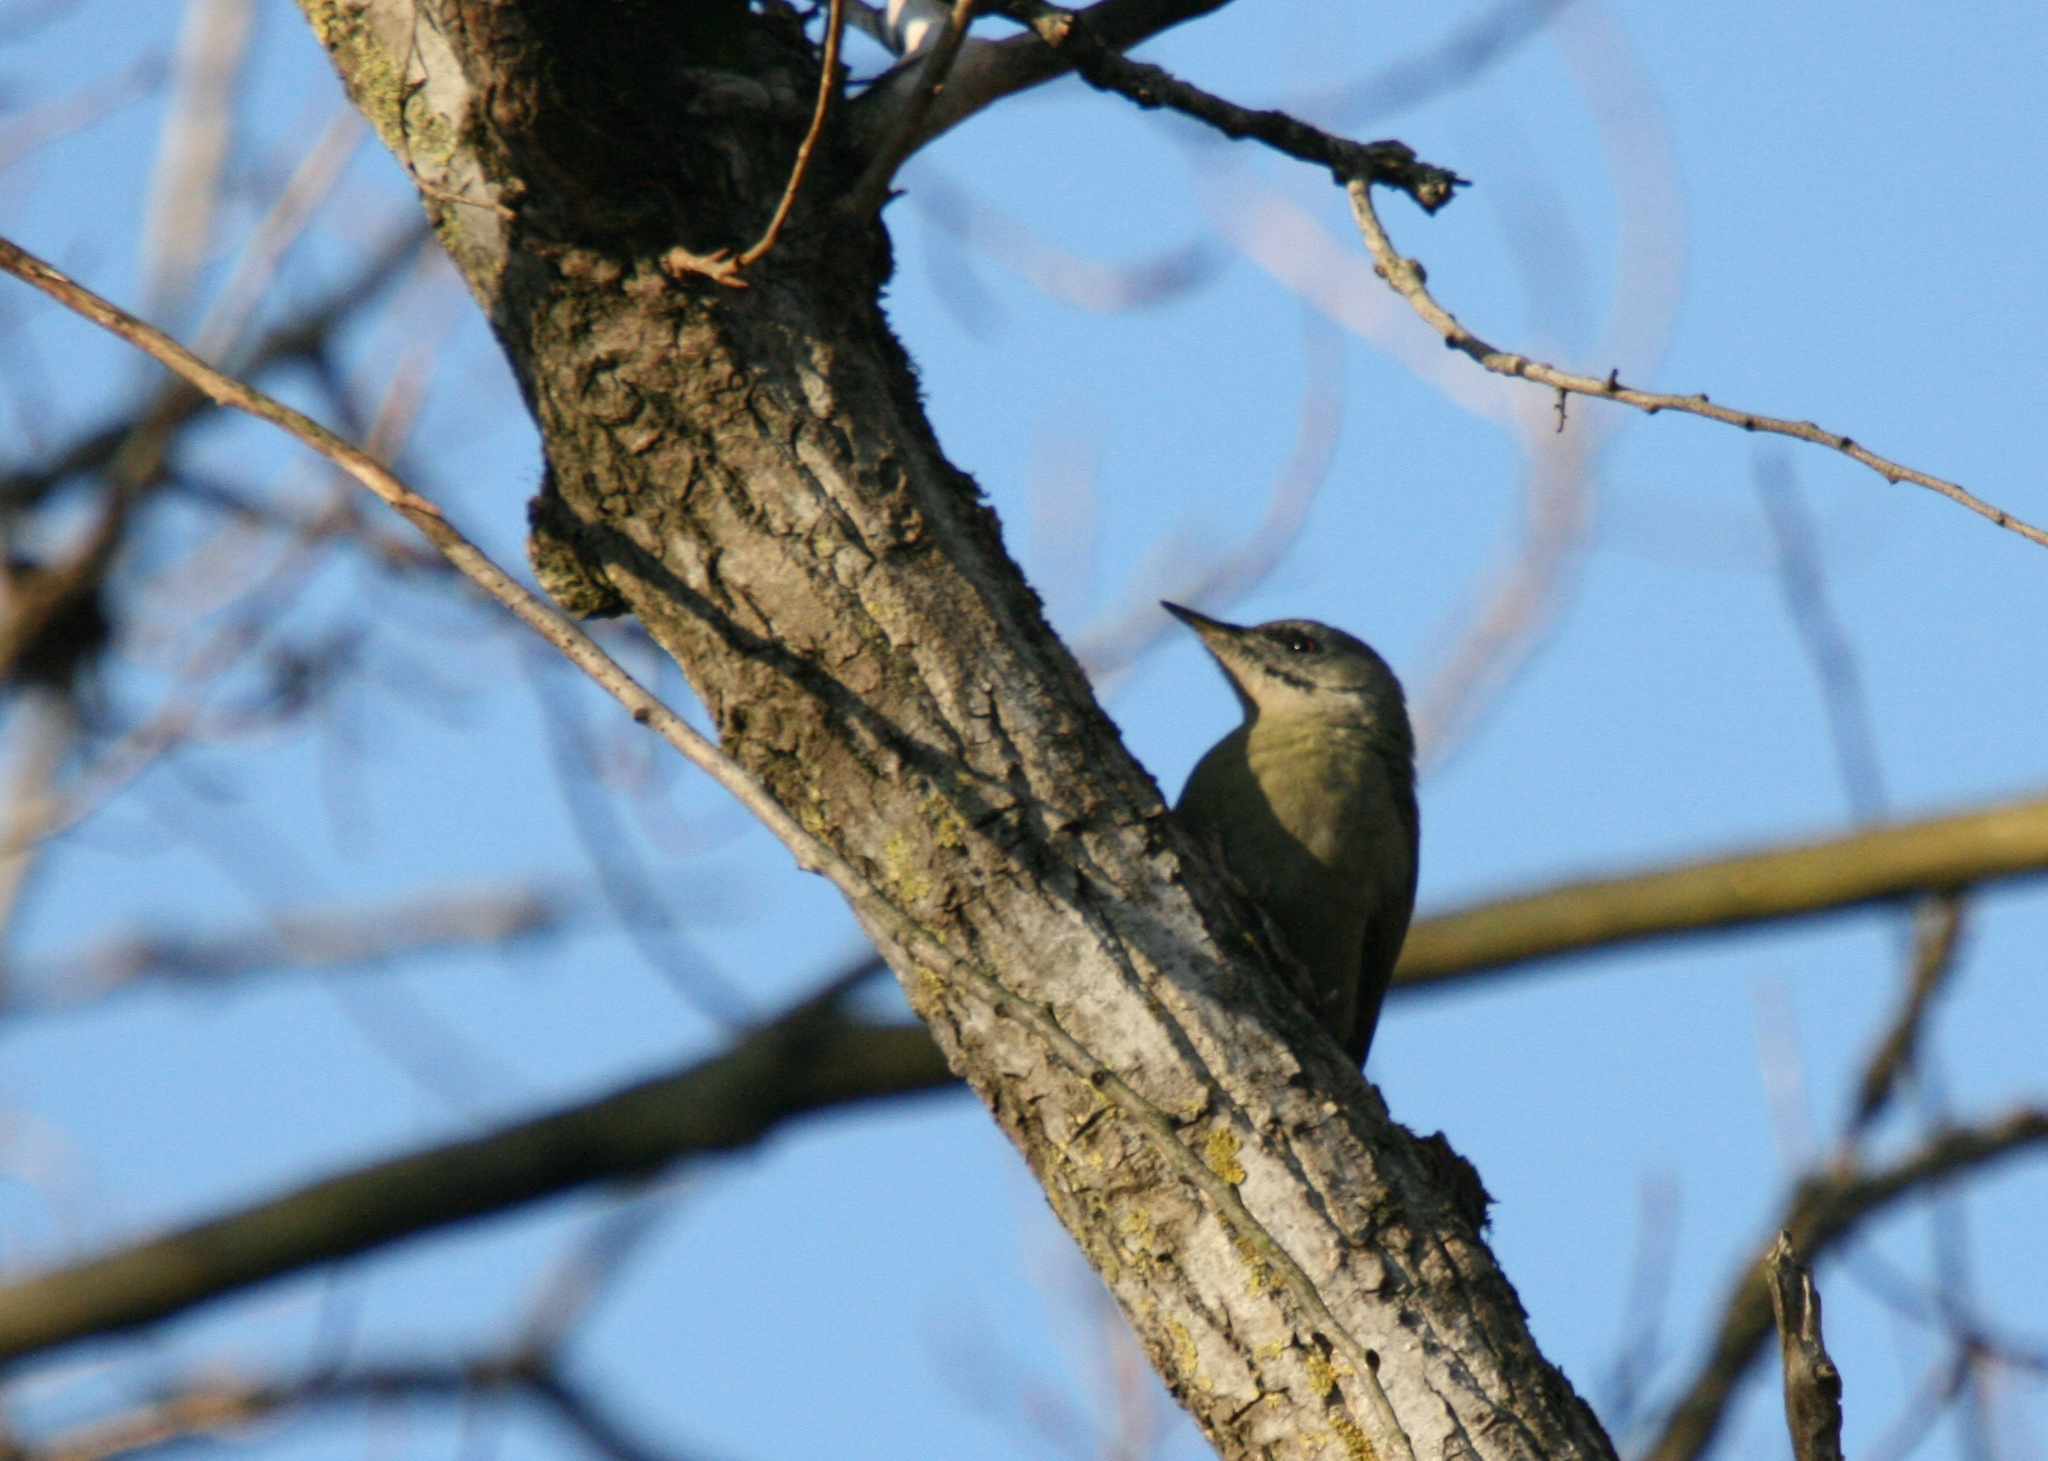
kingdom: Animalia
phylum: Chordata
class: Aves
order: Piciformes
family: Picidae
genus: Picus
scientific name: Picus canus
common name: Grey-headed woodpecker
